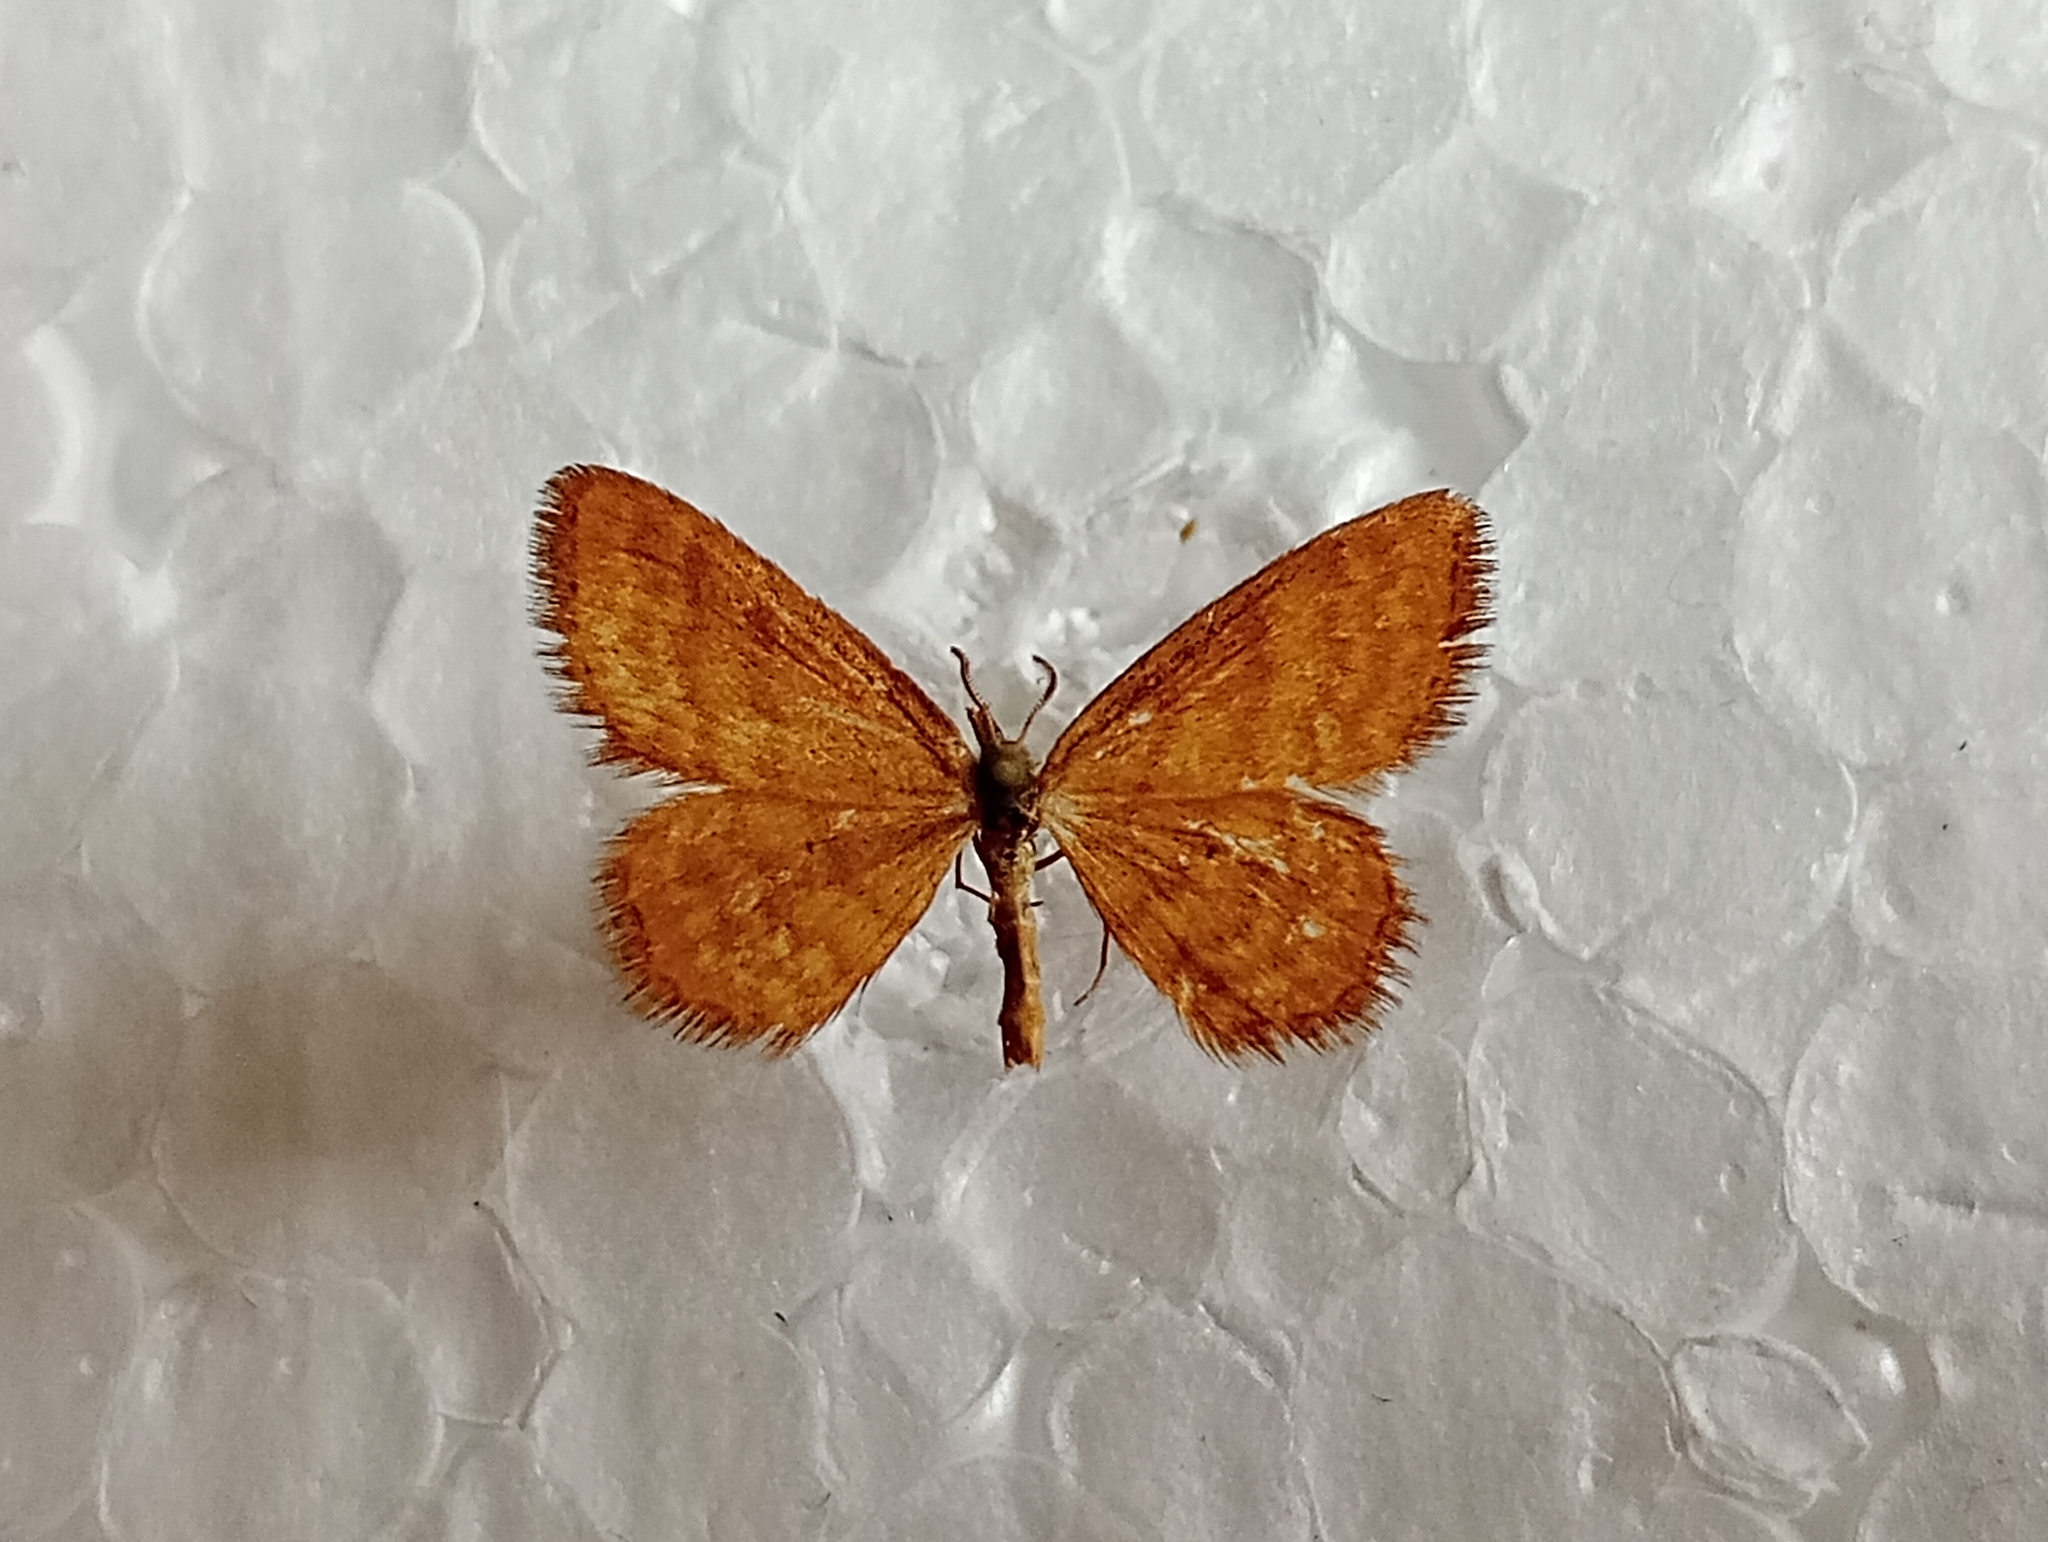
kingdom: Animalia
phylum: Arthropoda
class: Insecta
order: Lepidoptera
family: Geometridae
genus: Idaea
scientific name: Idaea serpentata
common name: Ochraceous wave
